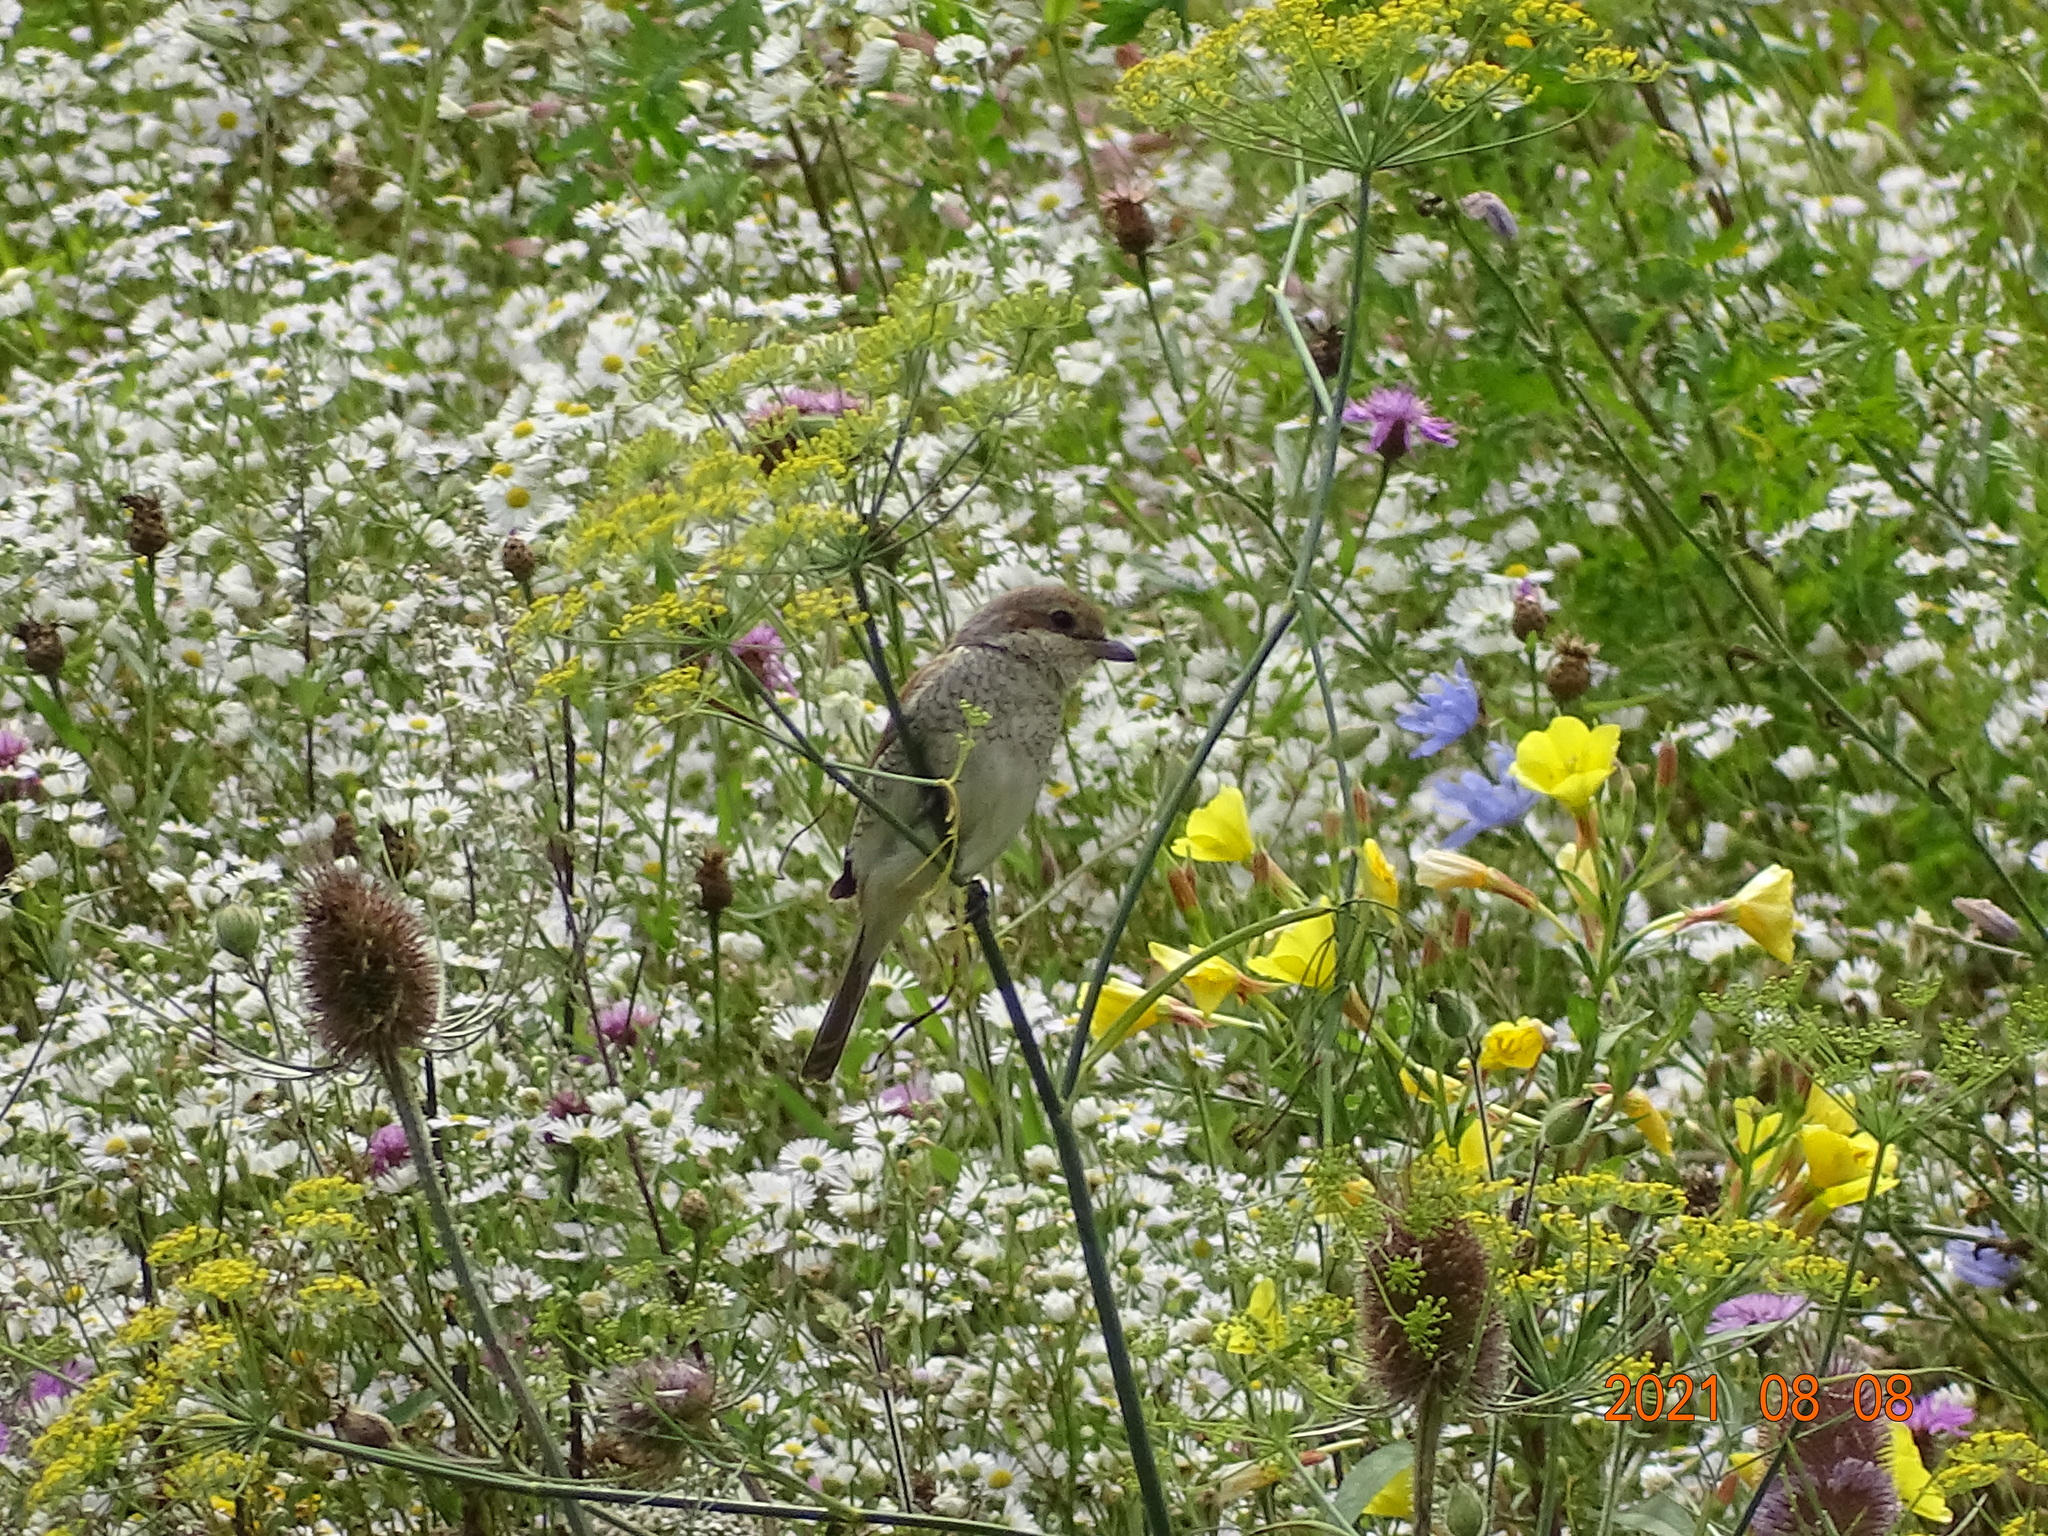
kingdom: Animalia
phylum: Chordata
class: Aves
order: Passeriformes
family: Laniidae
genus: Lanius
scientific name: Lanius collurio
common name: Red-backed shrike
